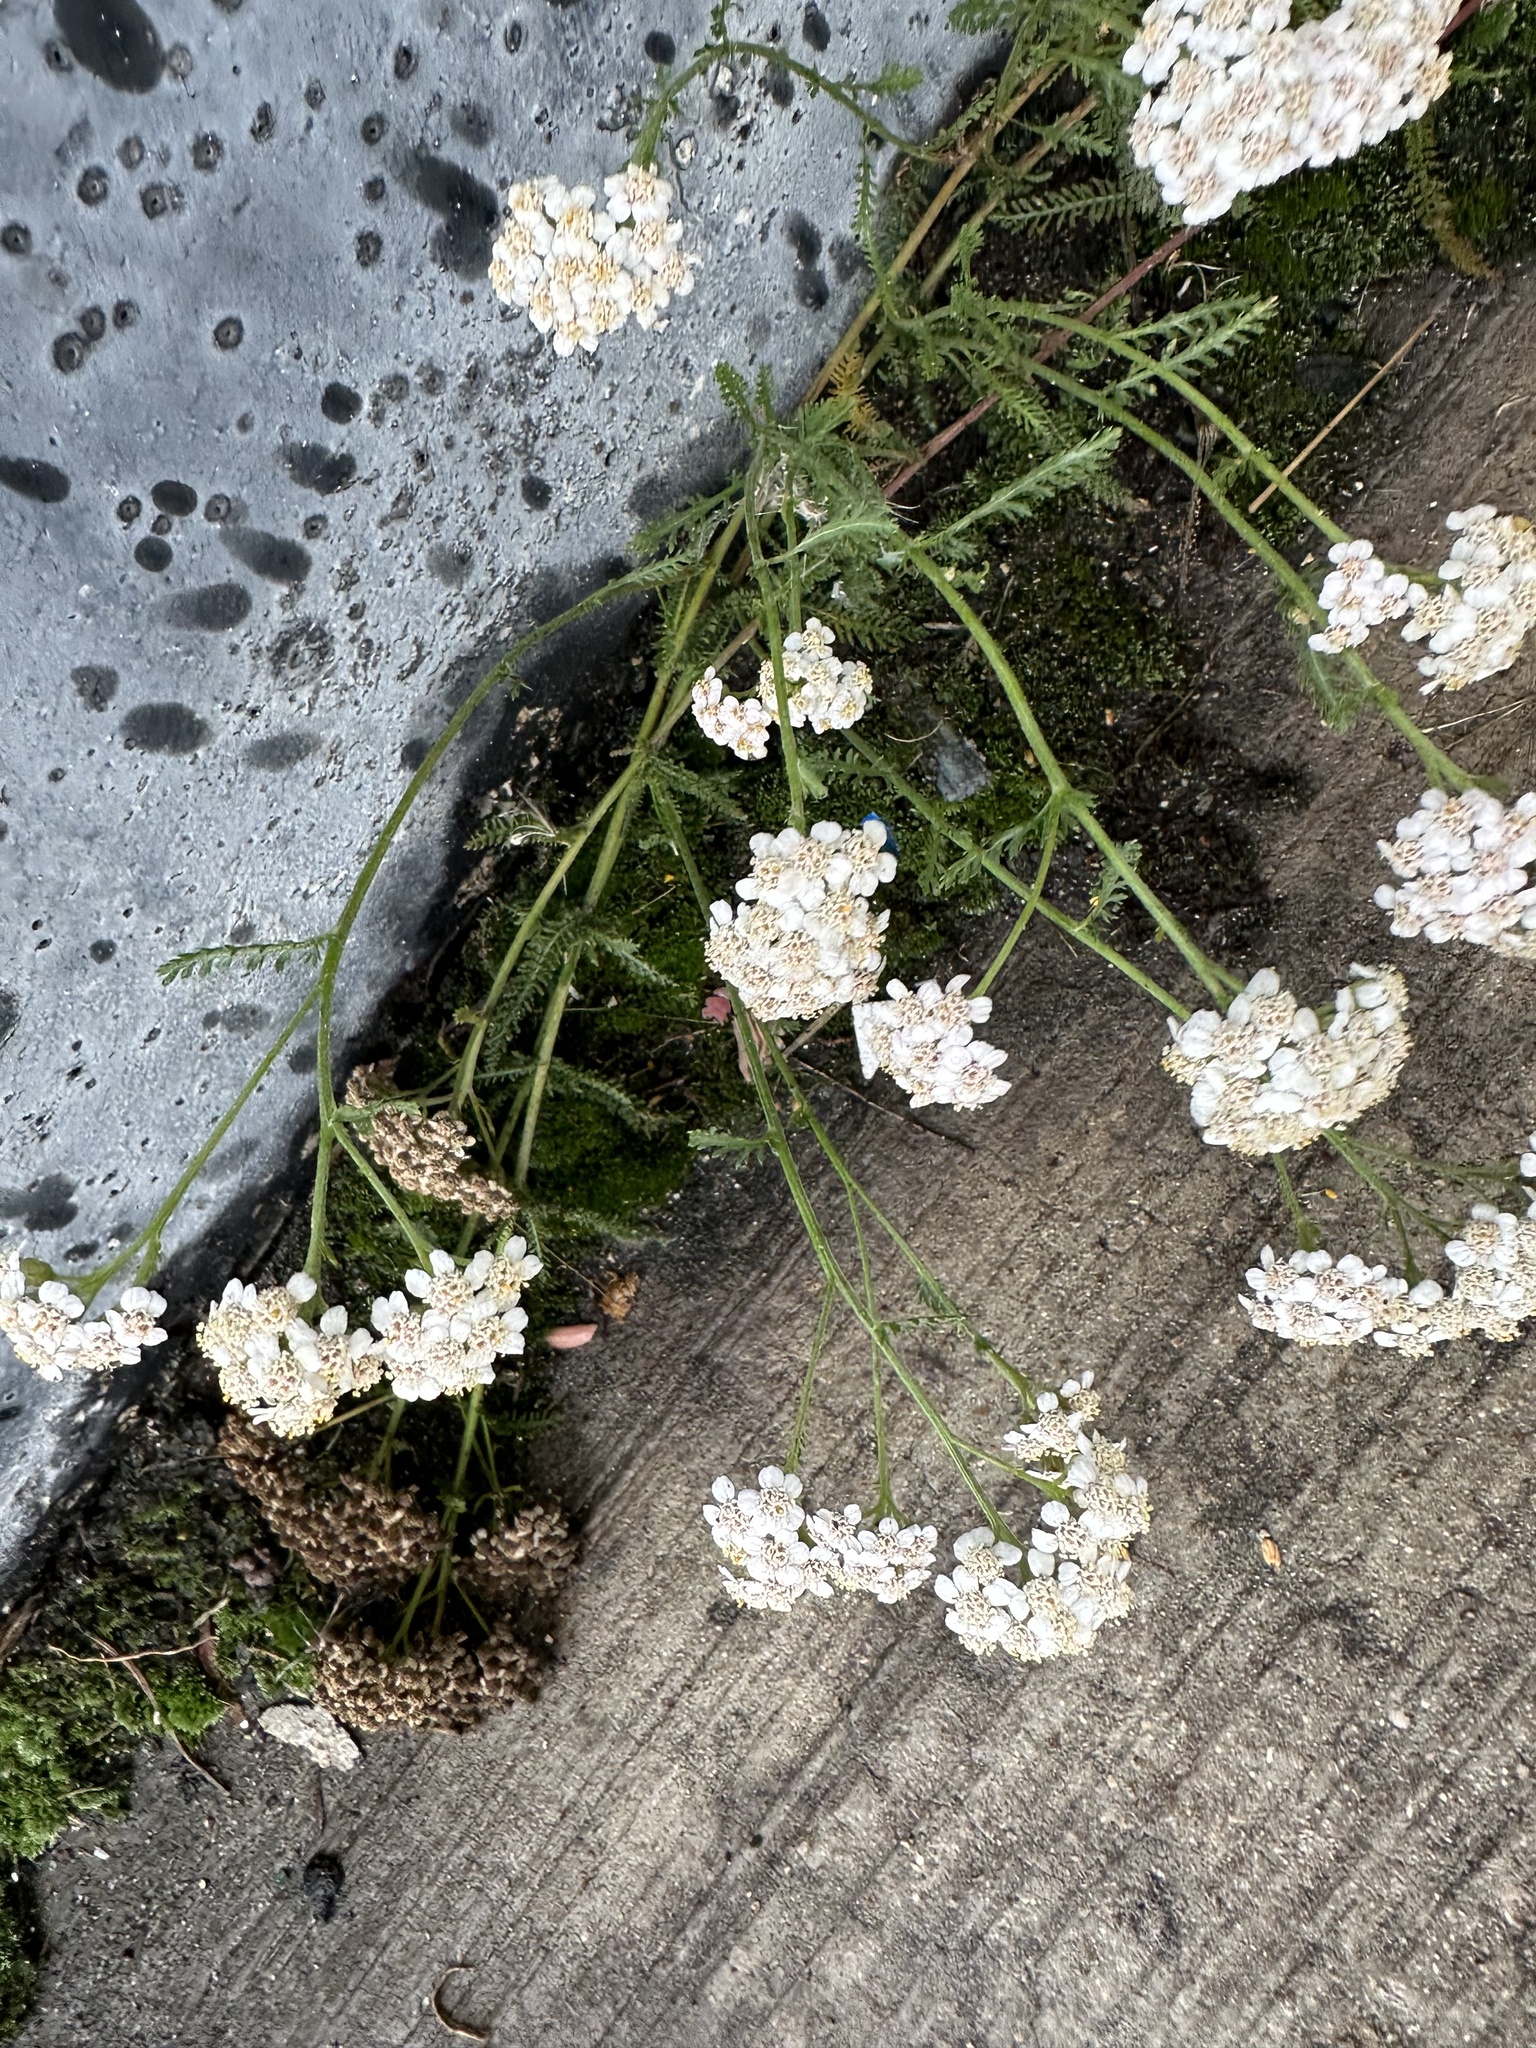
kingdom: Plantae
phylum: Tracheophyta
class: Magnoliopsida
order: Asterales
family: Asteraceae
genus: Achillea
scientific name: Achillea millefolium
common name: Yarrow
